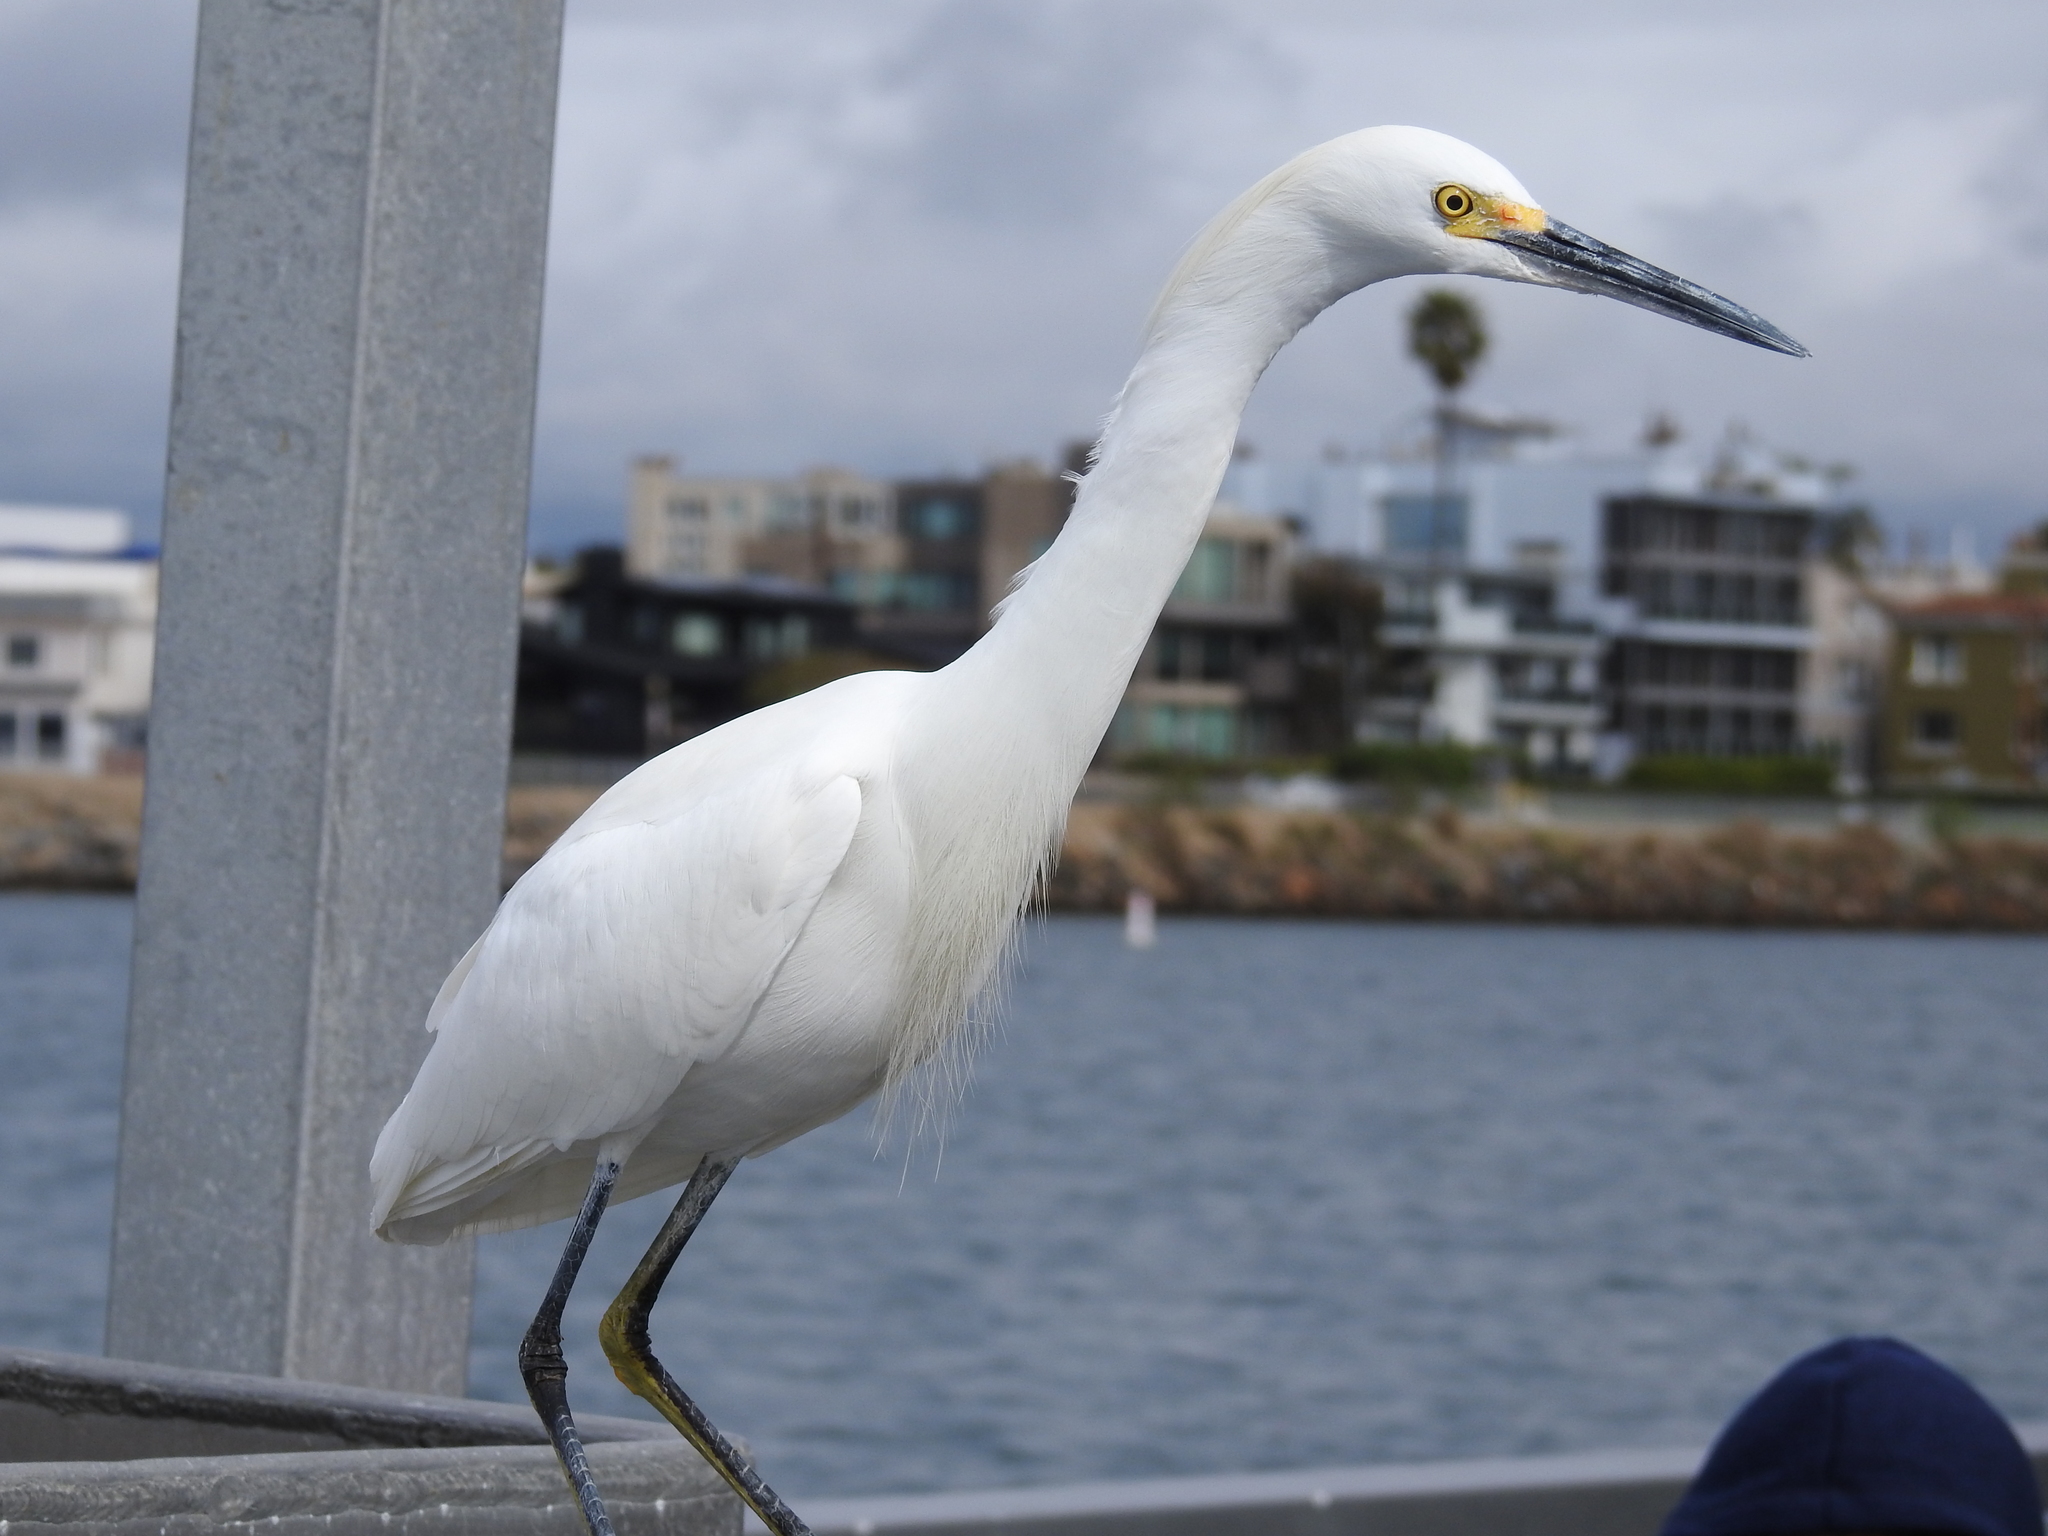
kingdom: Animalia
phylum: Chordata
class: Aves
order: Pelecaniformes
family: Ardeidae
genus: Egretta
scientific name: Egretta thula
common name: Snowy egret
